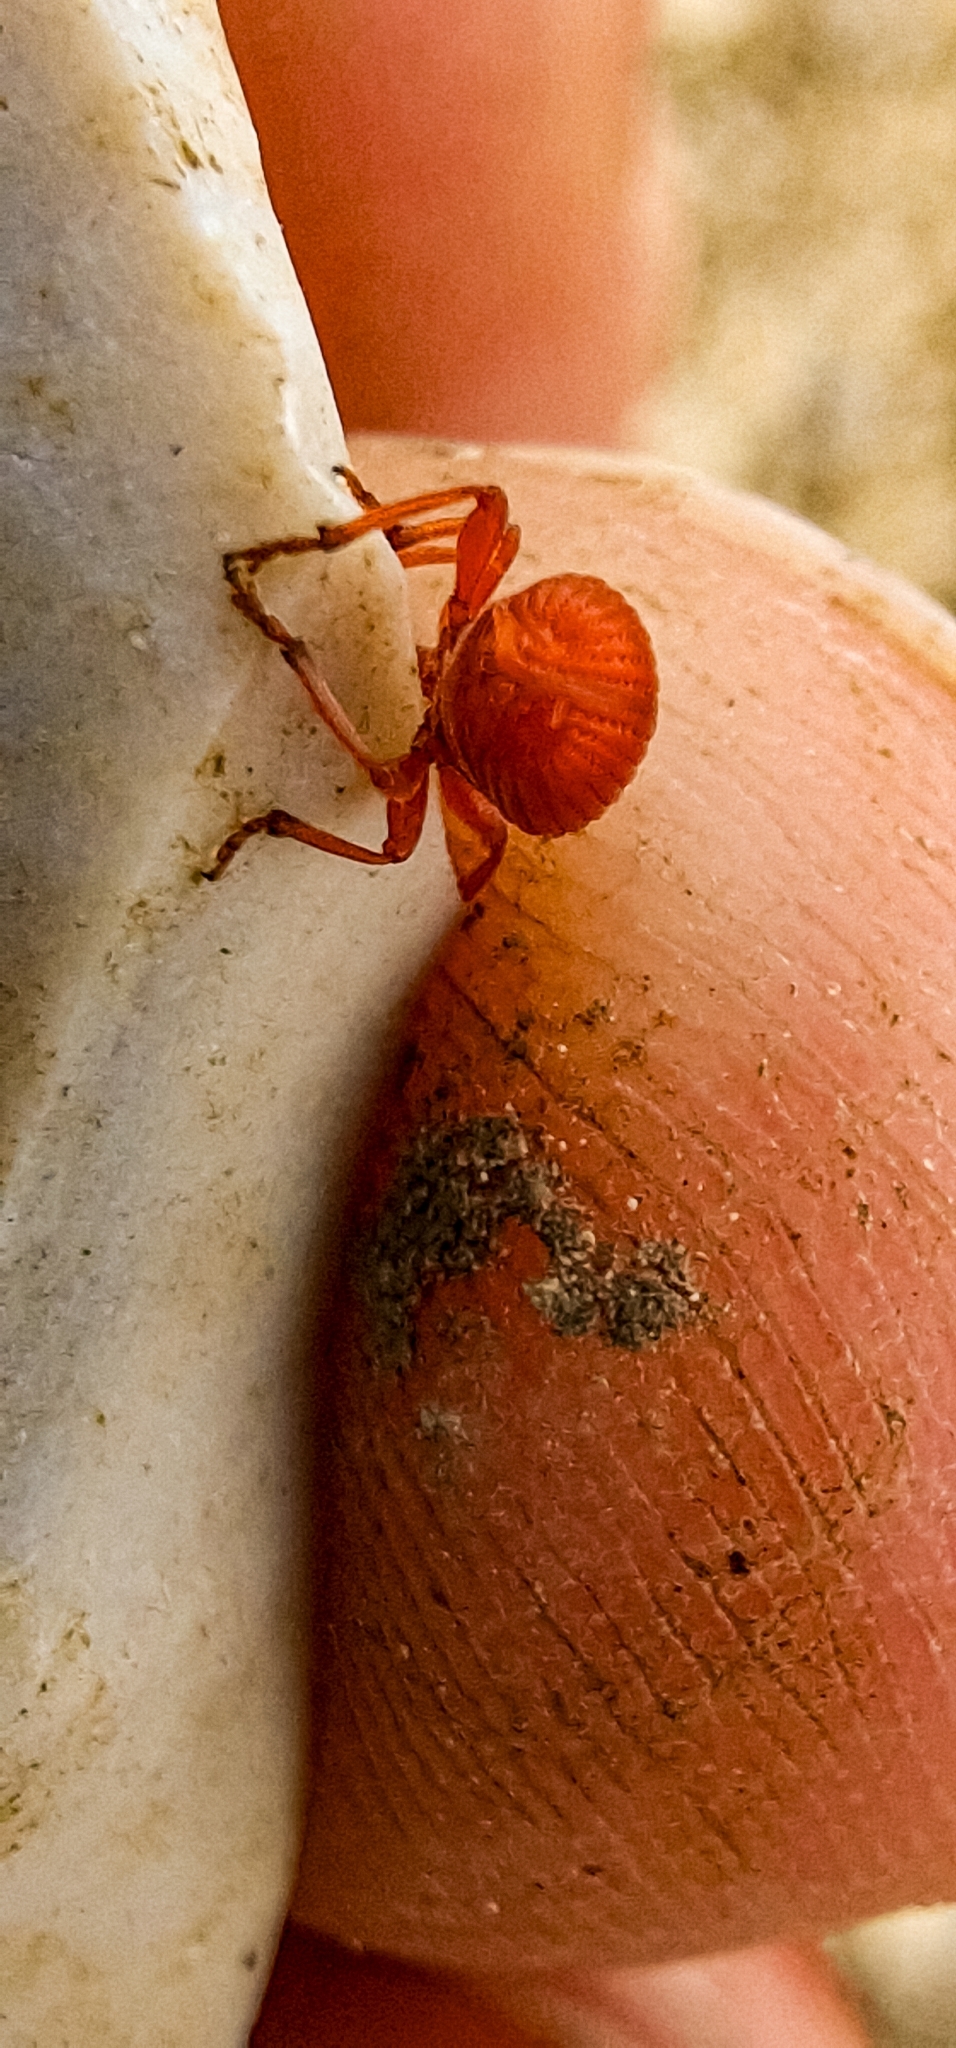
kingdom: Animalia
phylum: Arthropoda
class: Insecta
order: Coleoptera
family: Apionidae
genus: Apion
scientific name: Apion frumentarium
